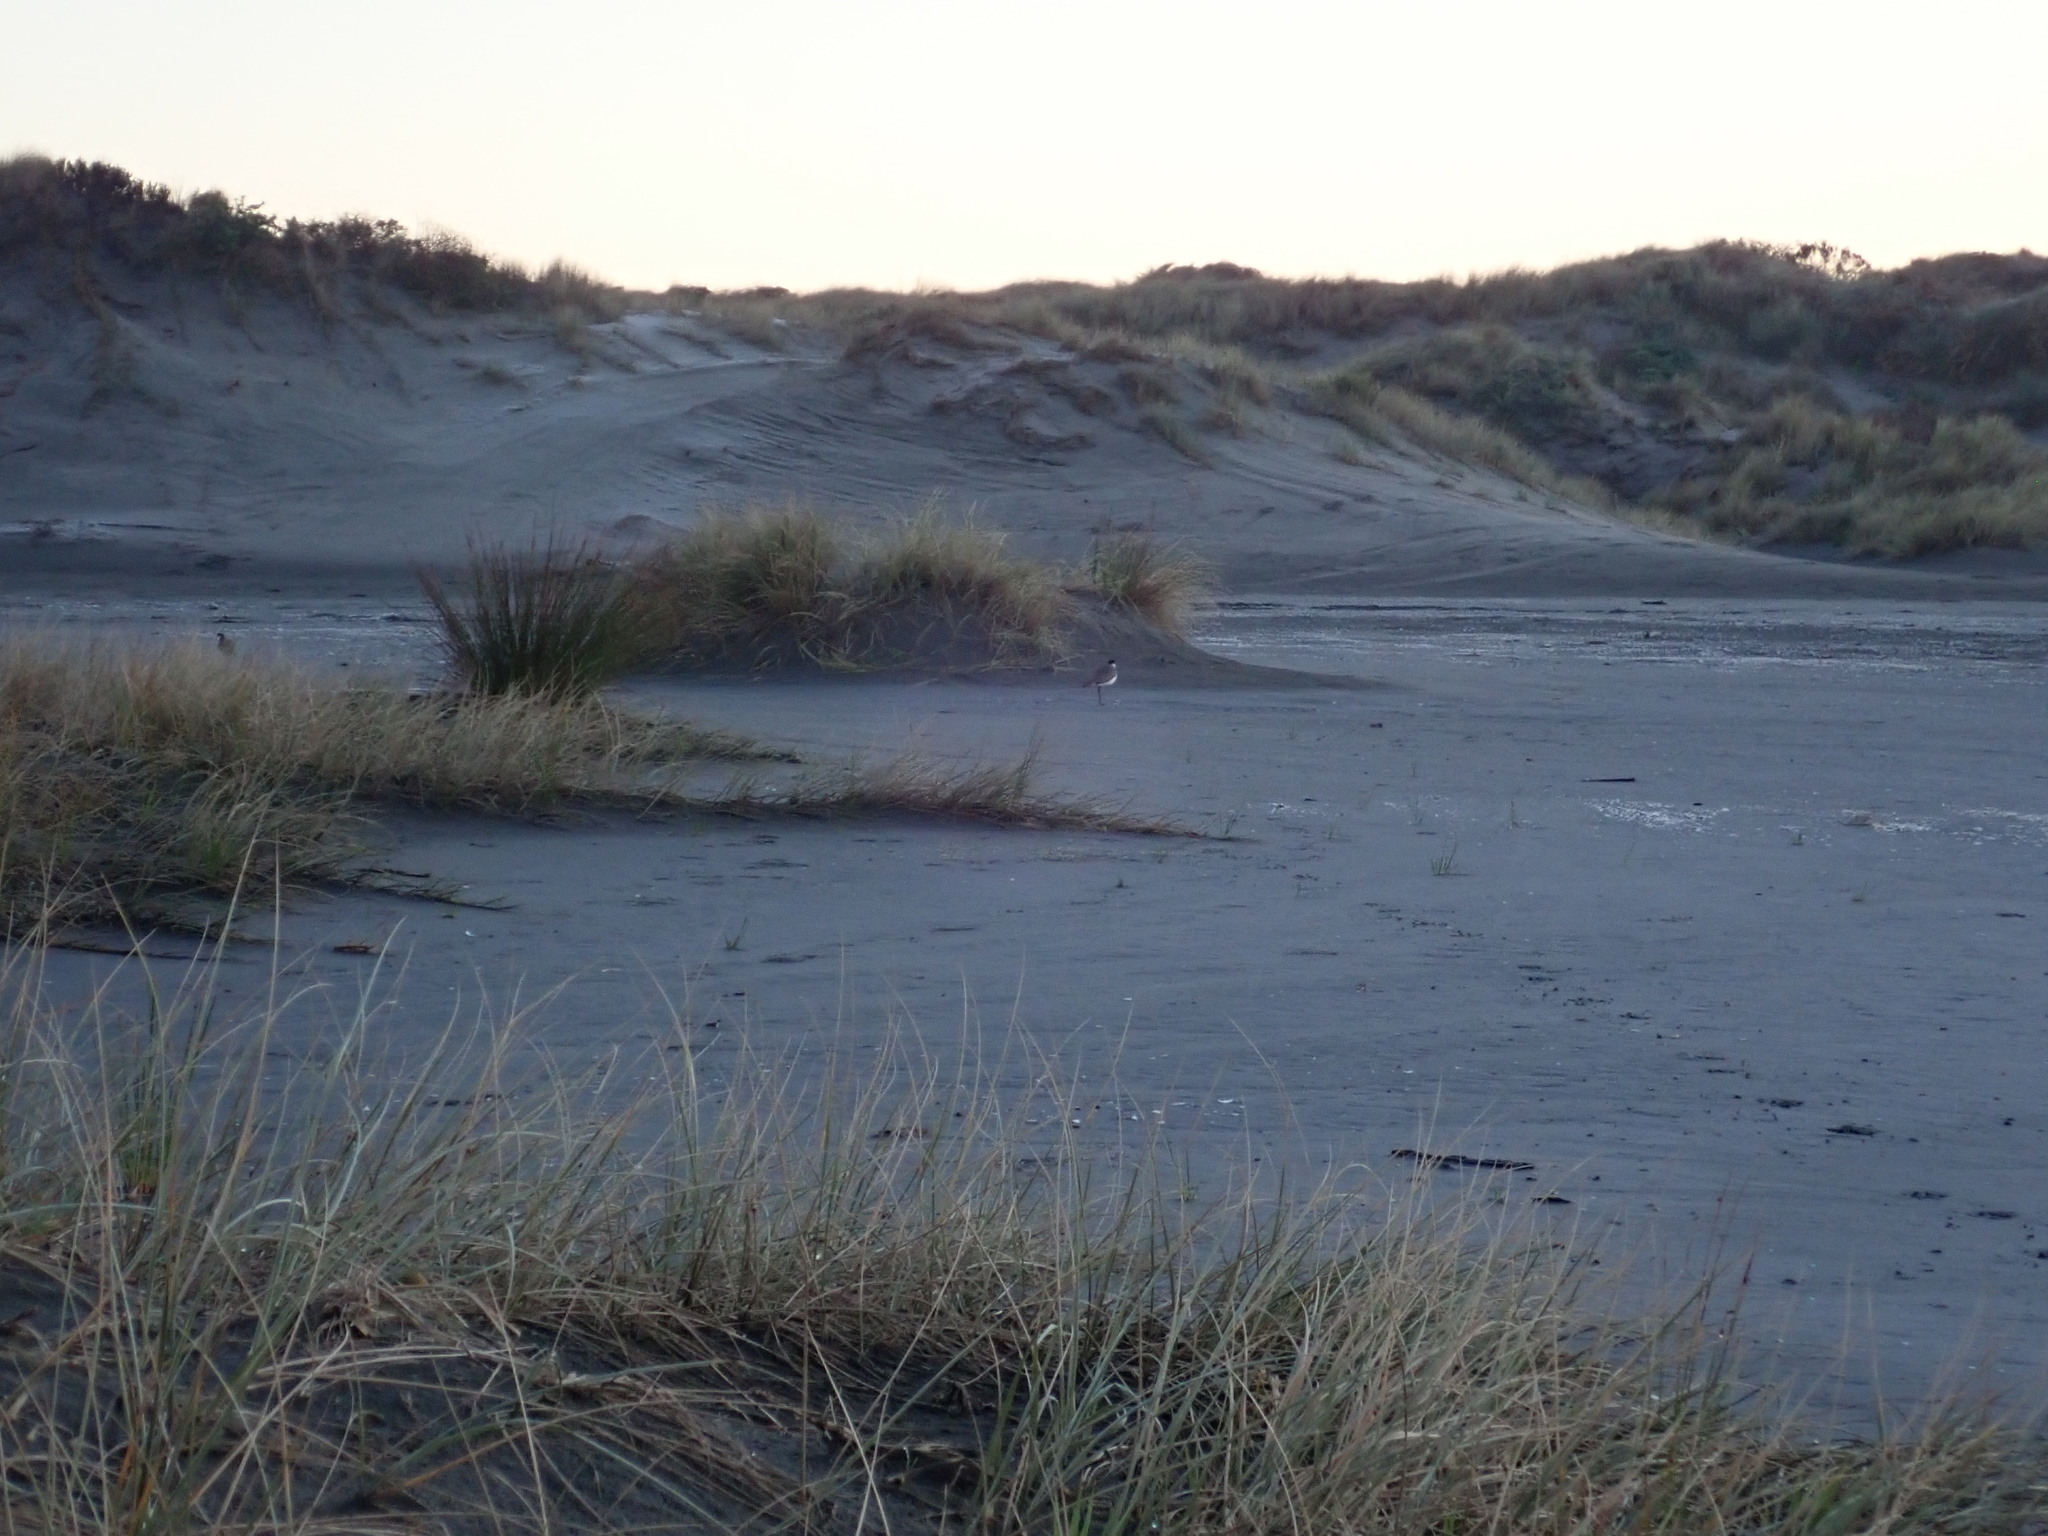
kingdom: Animalia
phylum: Chordata
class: Aves
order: Charadriiformes
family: Charadriidae
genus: Vanellus
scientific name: Vanellus miles
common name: Masked lapwing
